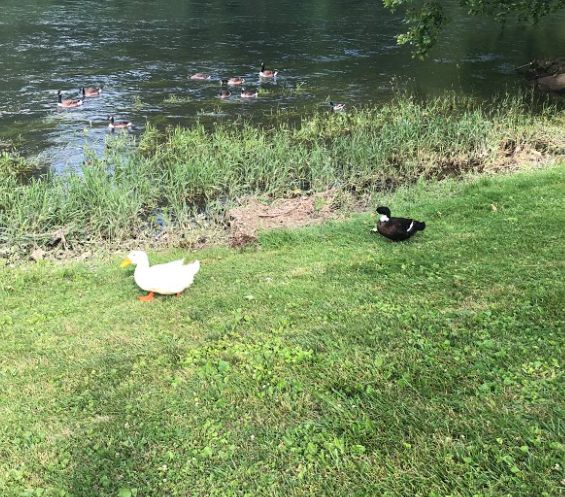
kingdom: Animalia
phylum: Chordata
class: Aves
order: Anseriformes
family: Anatidae
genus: Anas
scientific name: Anas platyrhynchos
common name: Mallard
